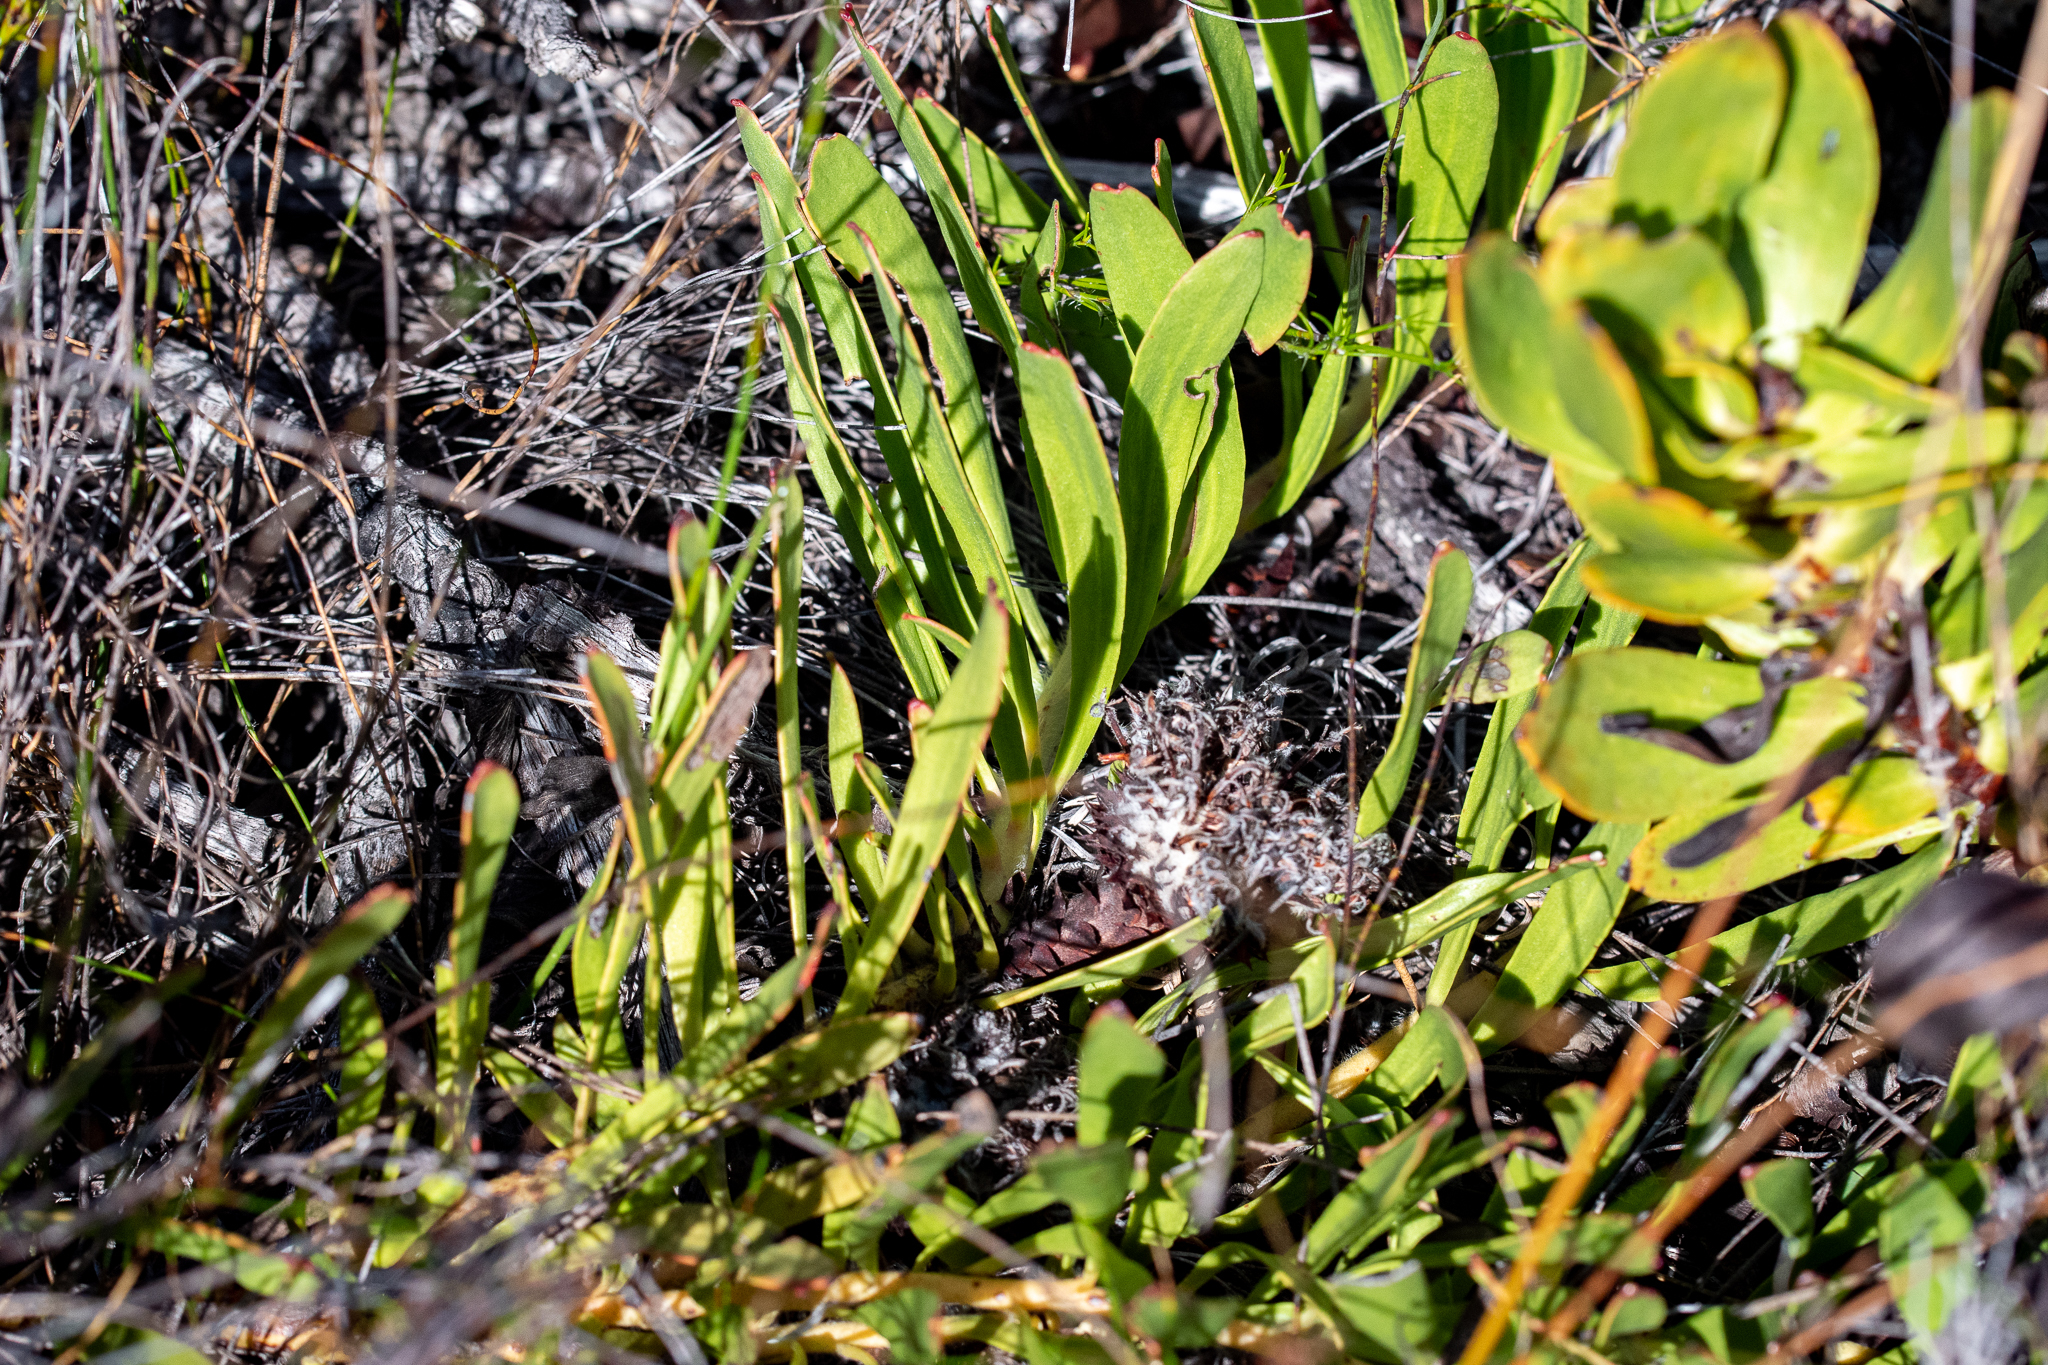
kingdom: Plantae
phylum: Tracheophyta
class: Magnoliopsida
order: Proteales
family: Proteaceae
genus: Leucospermum
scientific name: Leucospermum hypophyllocarpodendron
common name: Snakestem pincushion
